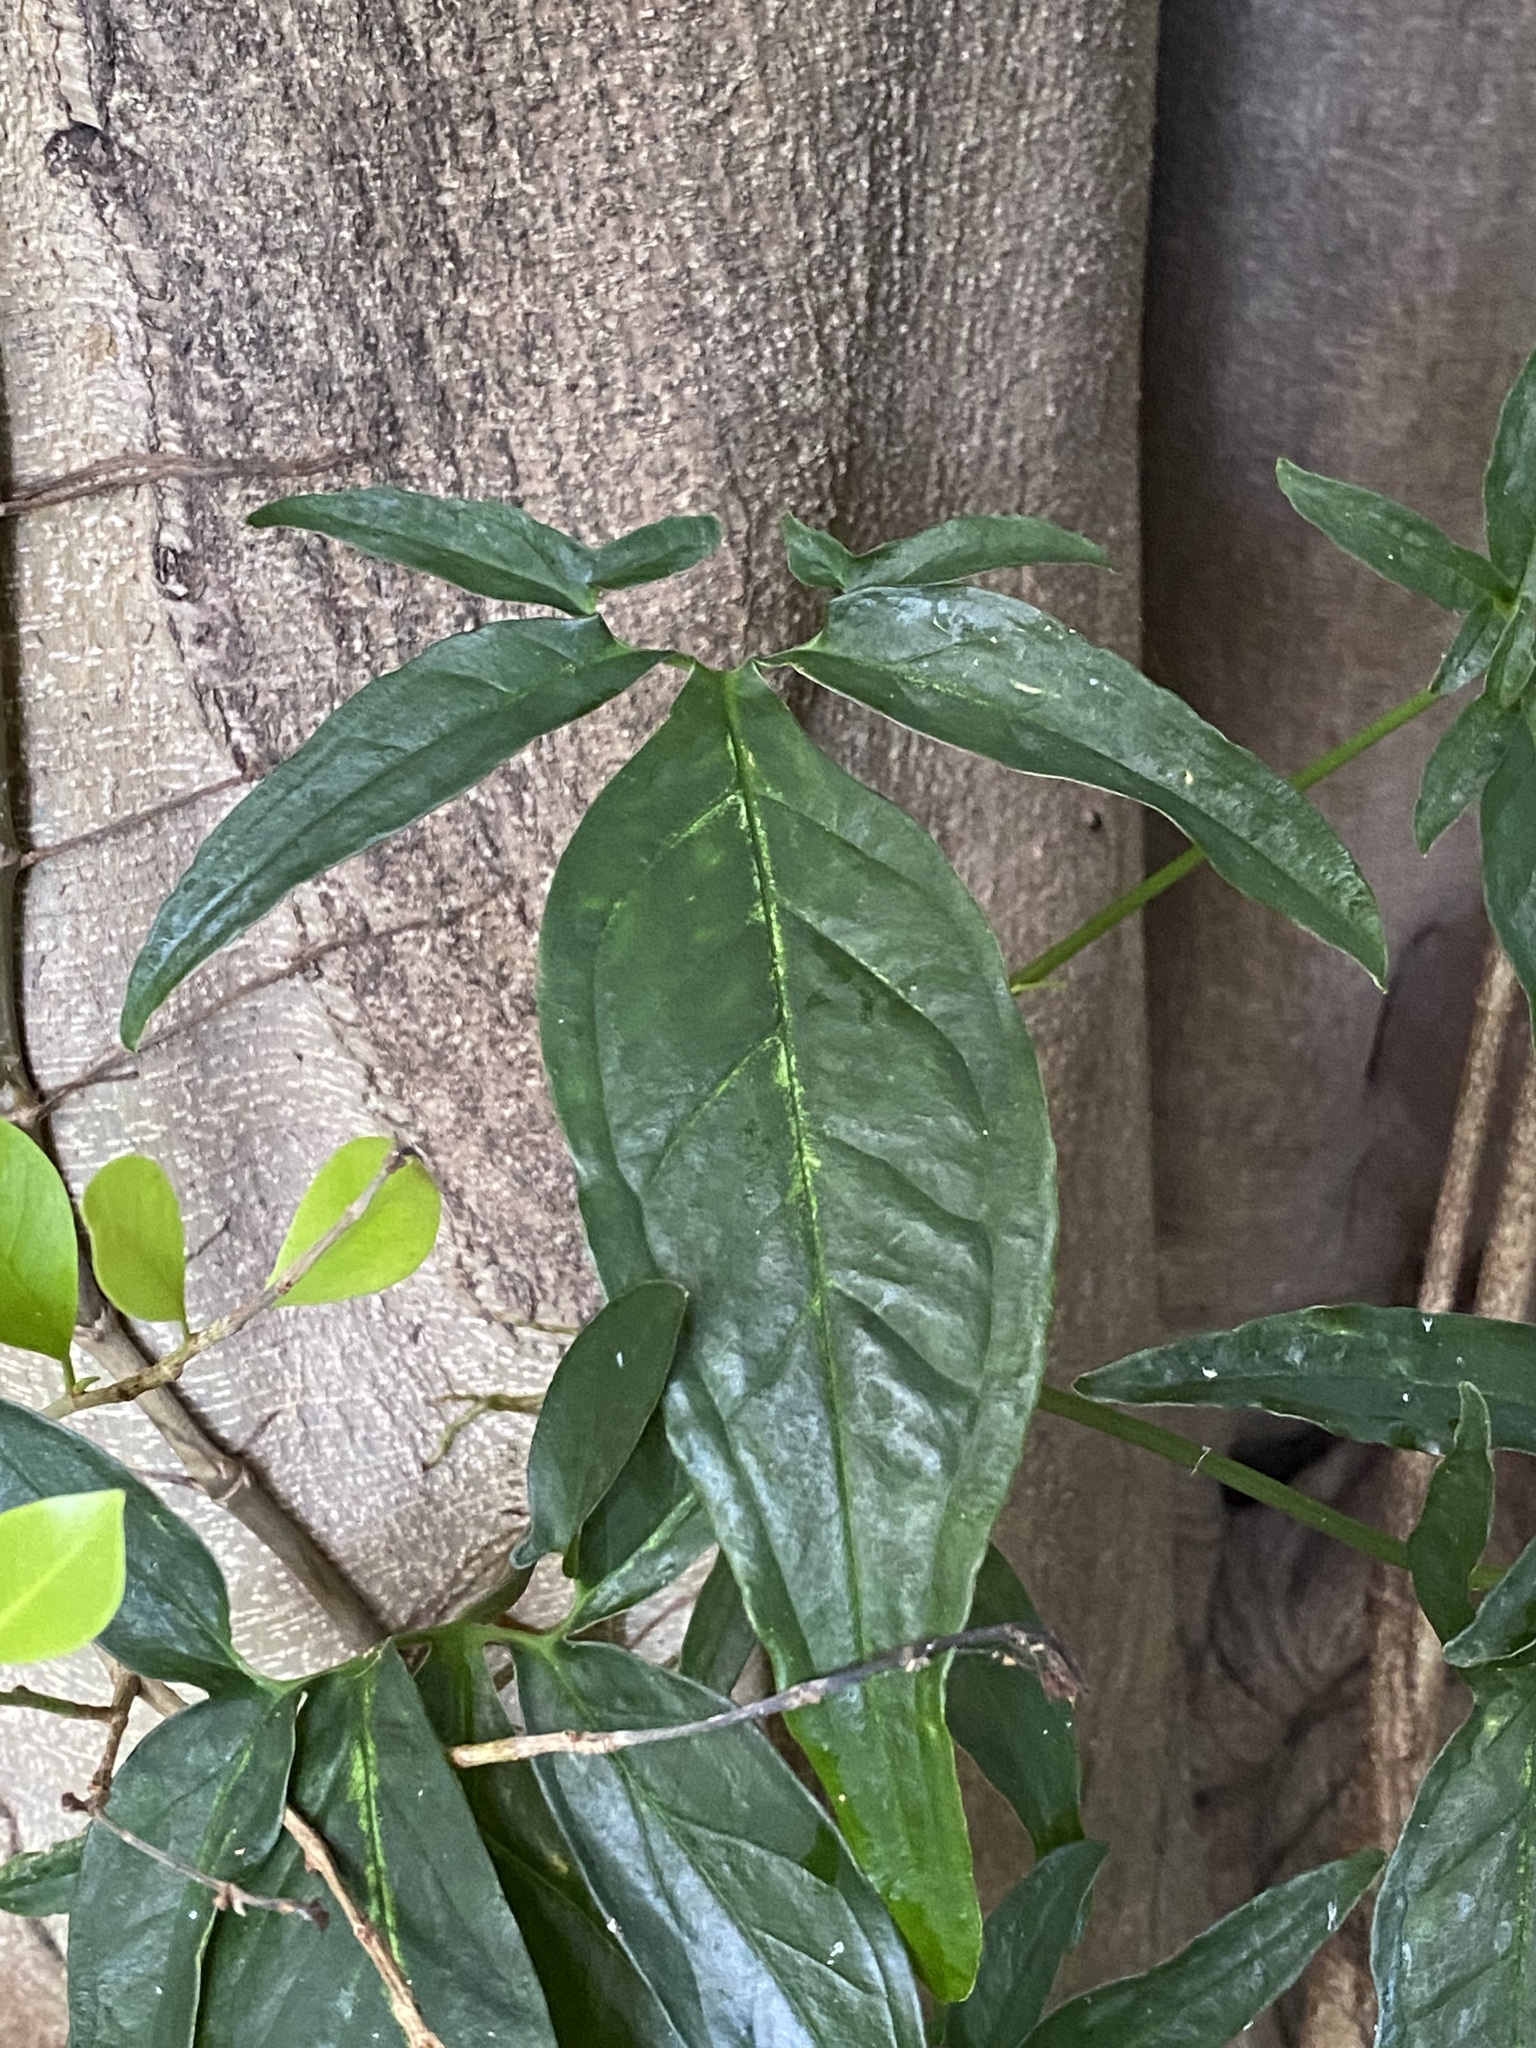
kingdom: Plantae
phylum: Tracheophyta
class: Liliopsida
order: Alismatales
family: Araceae
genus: Syngonium
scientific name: Syngonium podophyllum
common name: American evergreen
